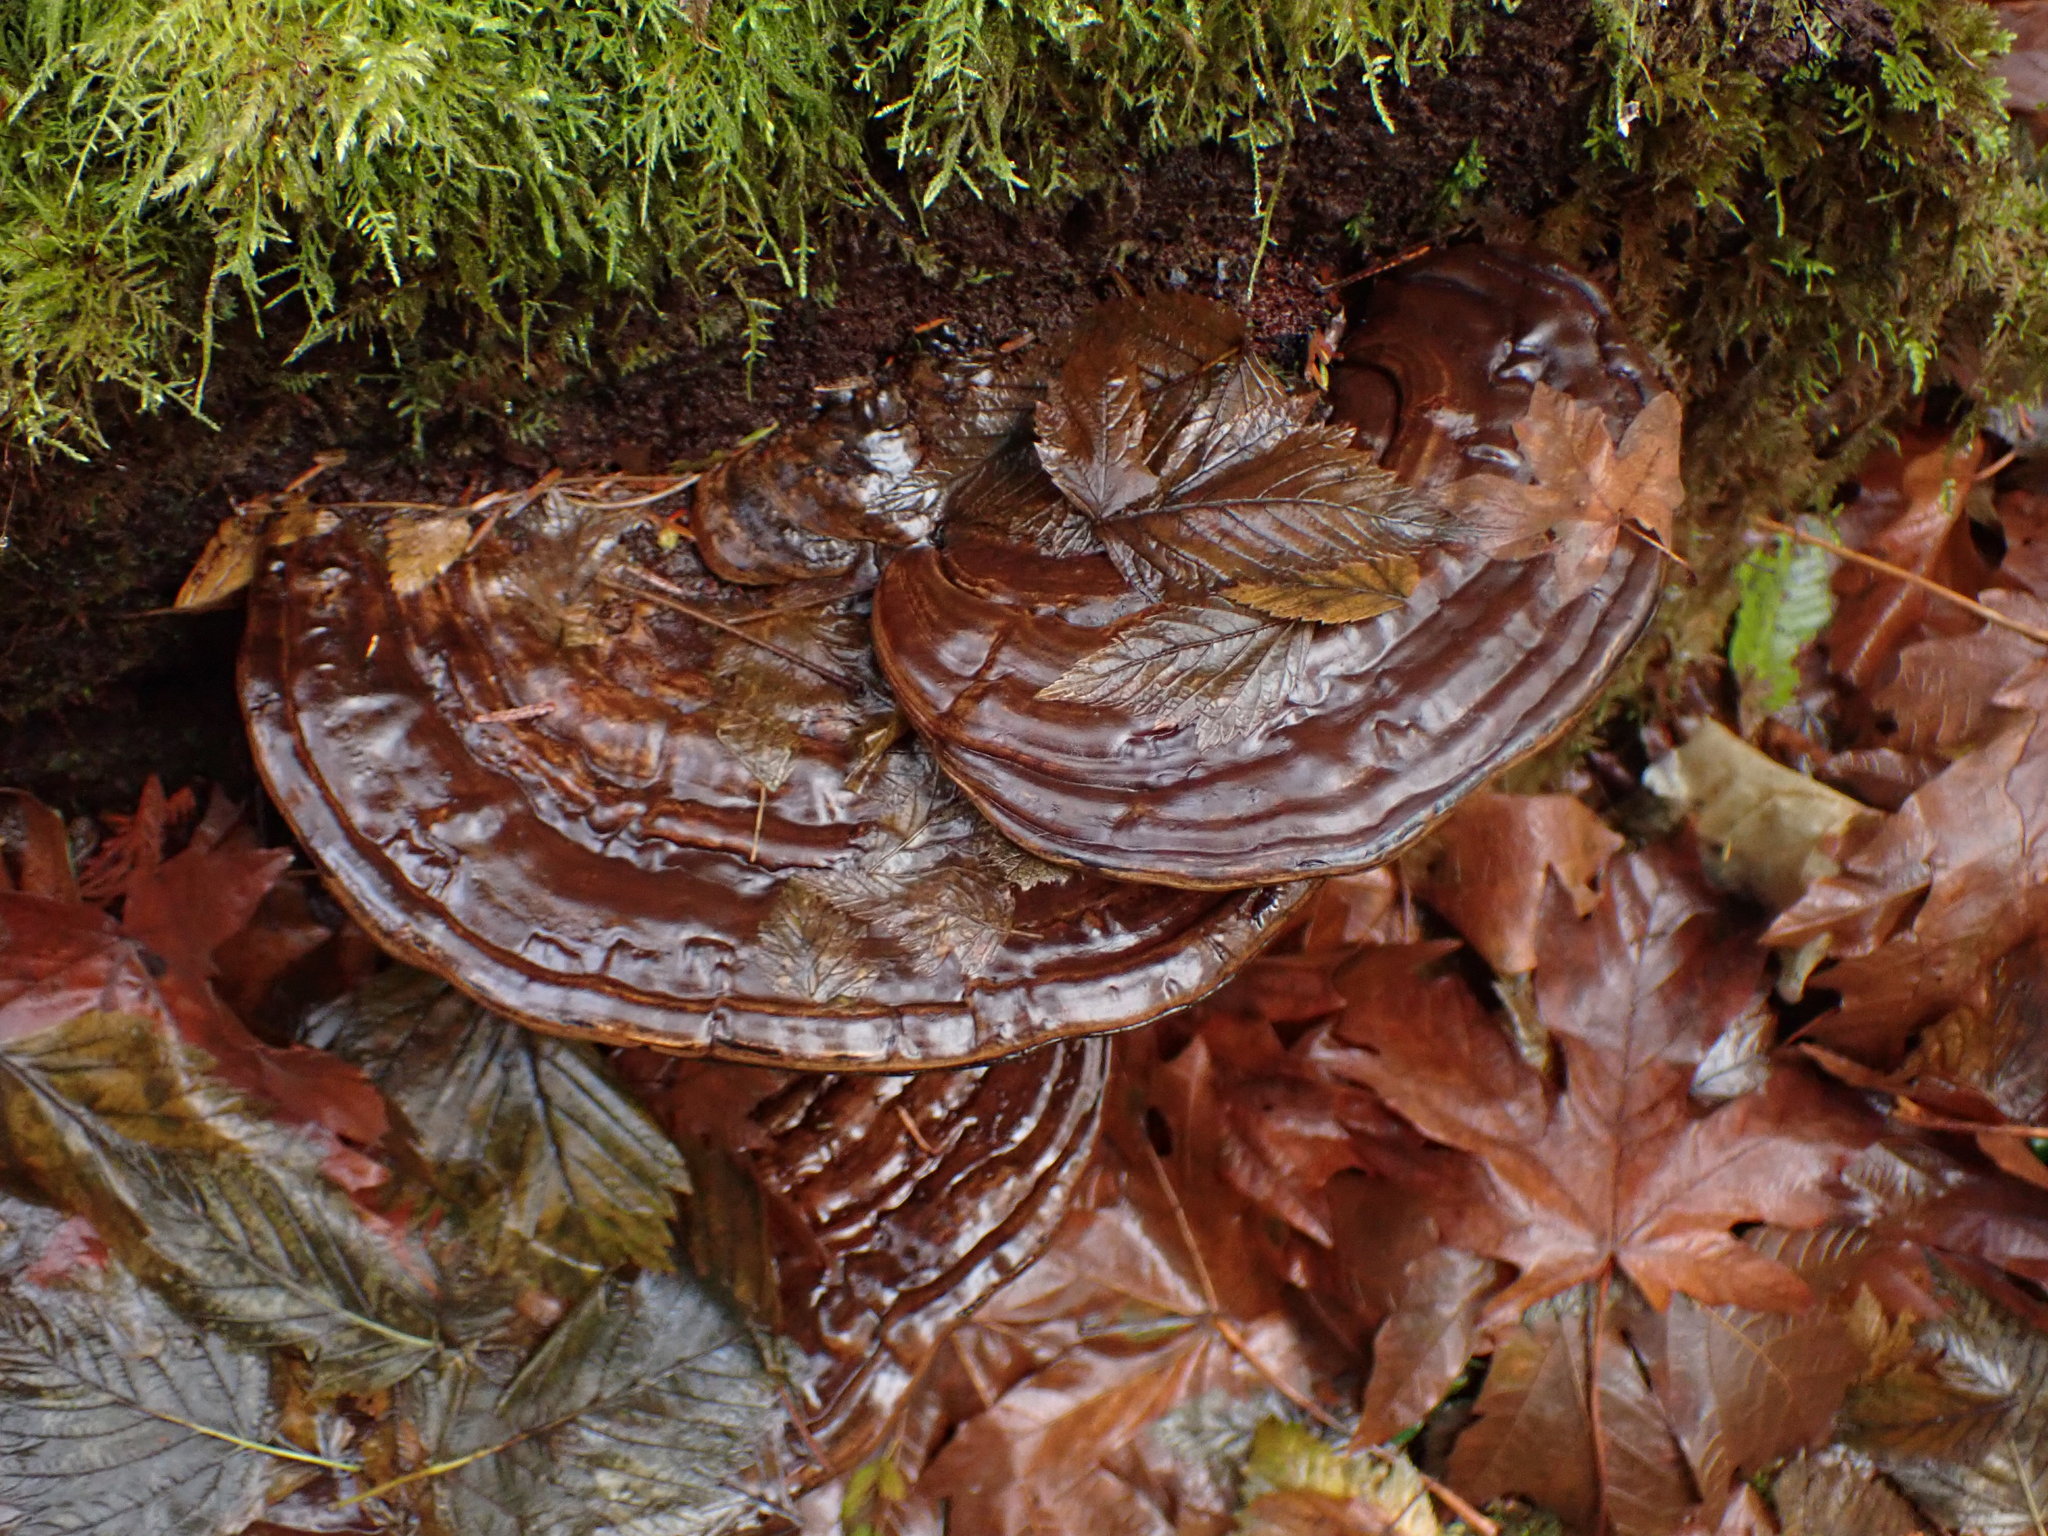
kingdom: Fungi
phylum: Basidiomycota
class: Agaricomycetes
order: Polyporales
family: Polyporaceae
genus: Ganoderma
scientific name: Ganoderma oregonense
